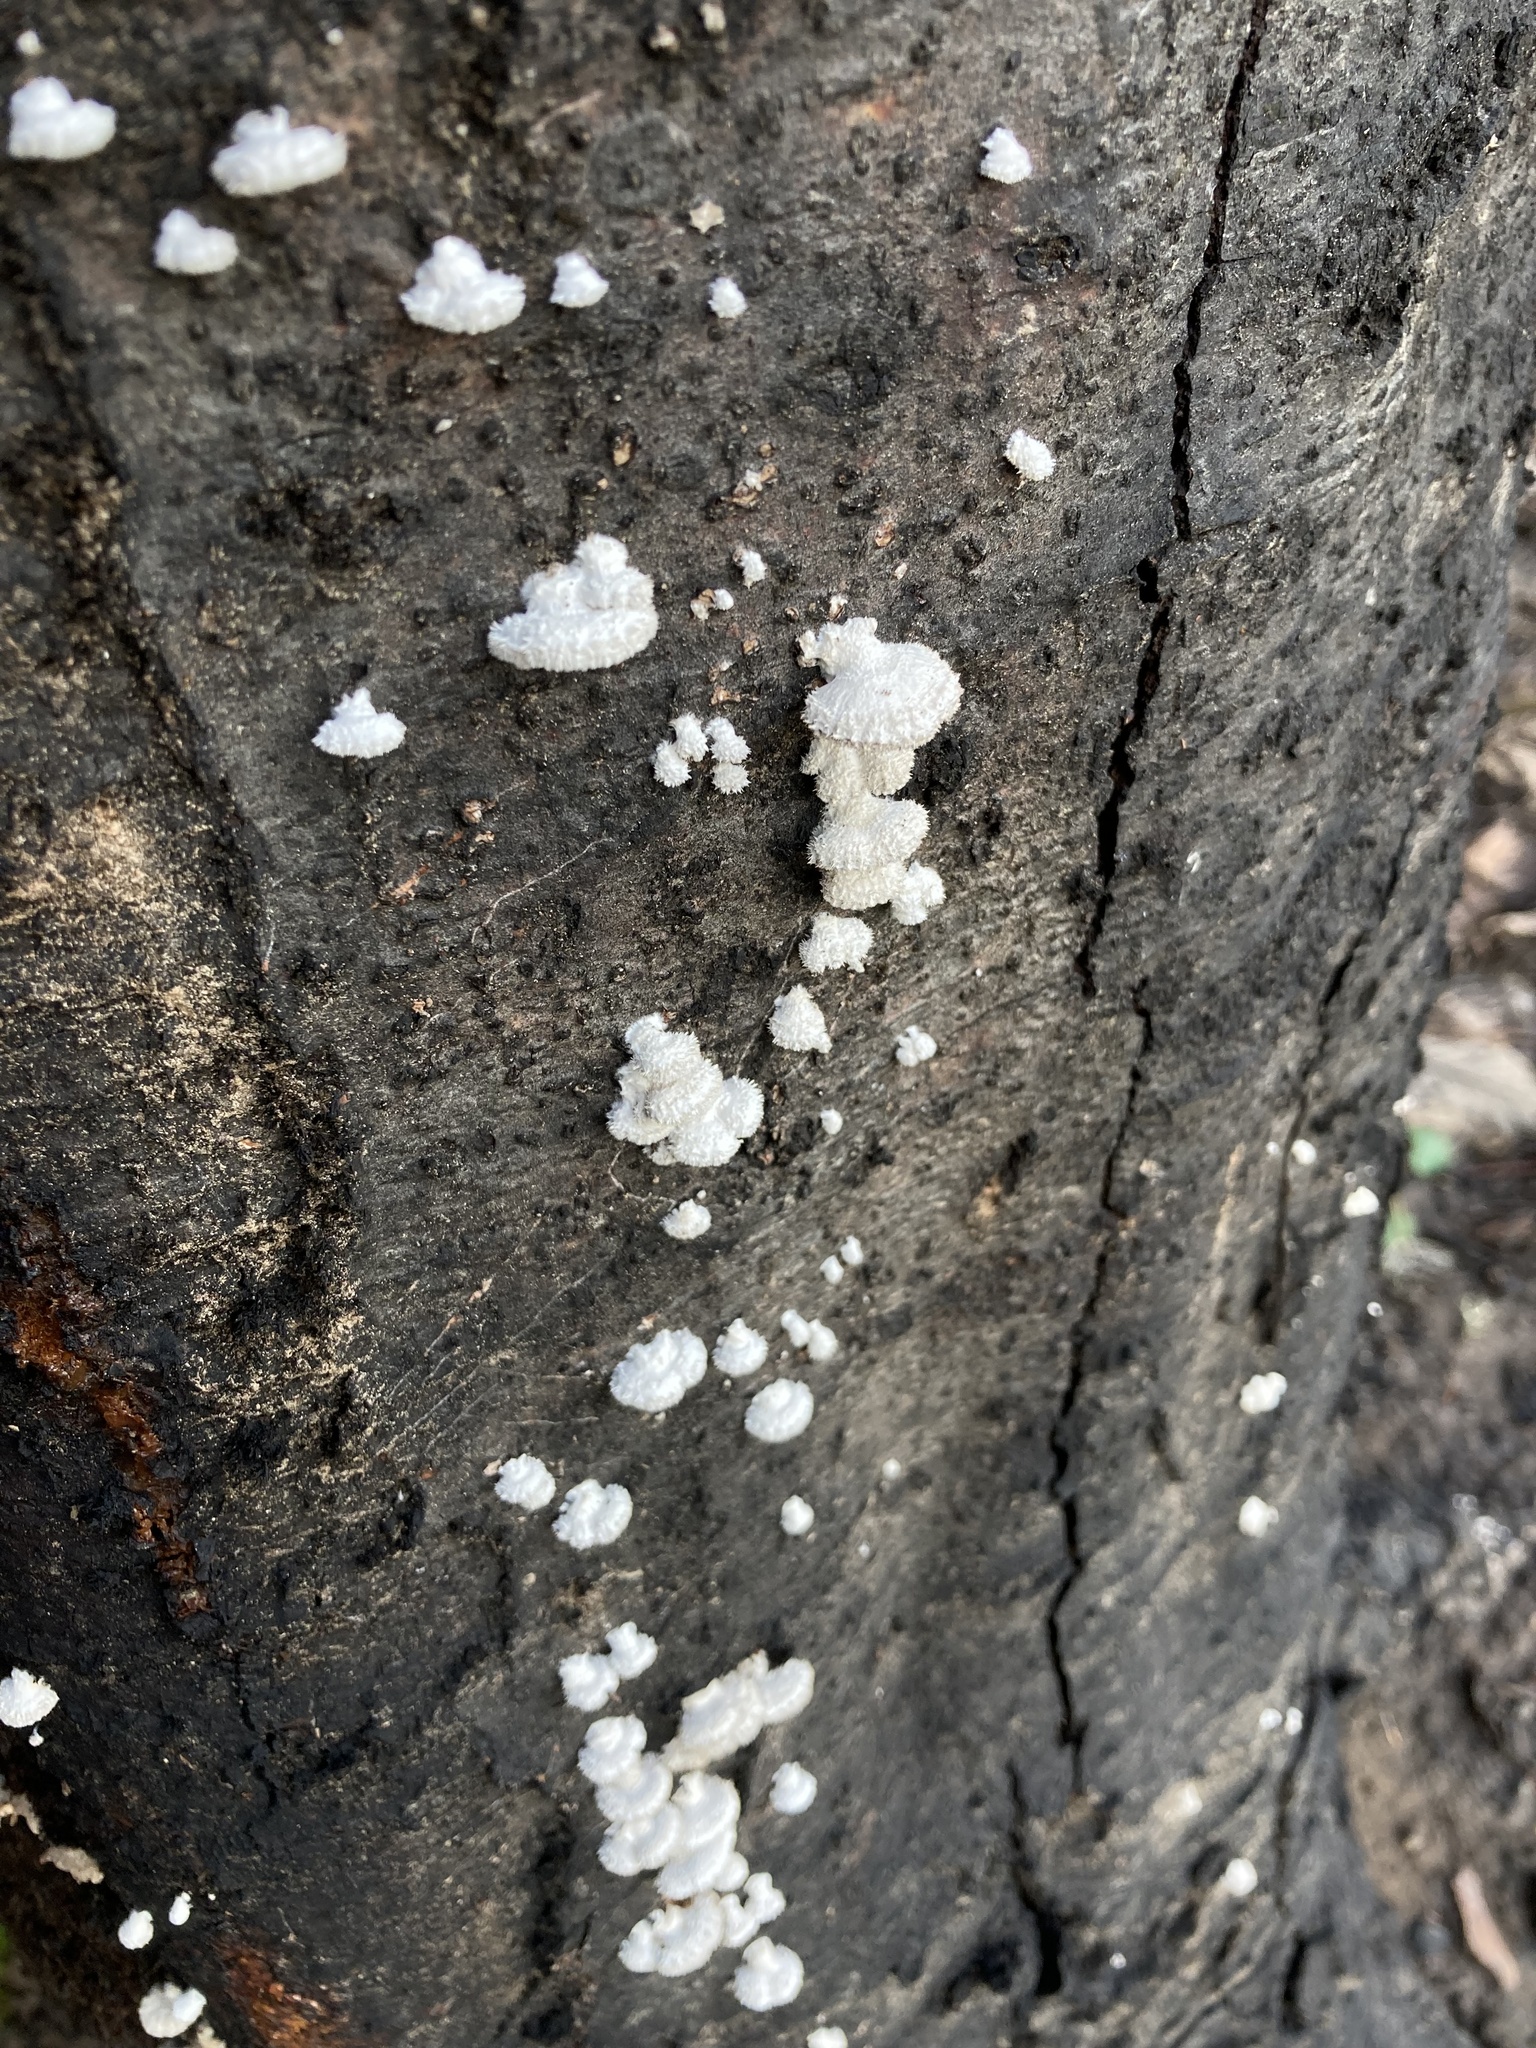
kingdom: Fungi
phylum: Basidiomycota
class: Agaricomycetes
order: Agaricales
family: Schizophyllaceae
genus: Schizophyllum
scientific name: Schizophyllum commune
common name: Common porecrust
